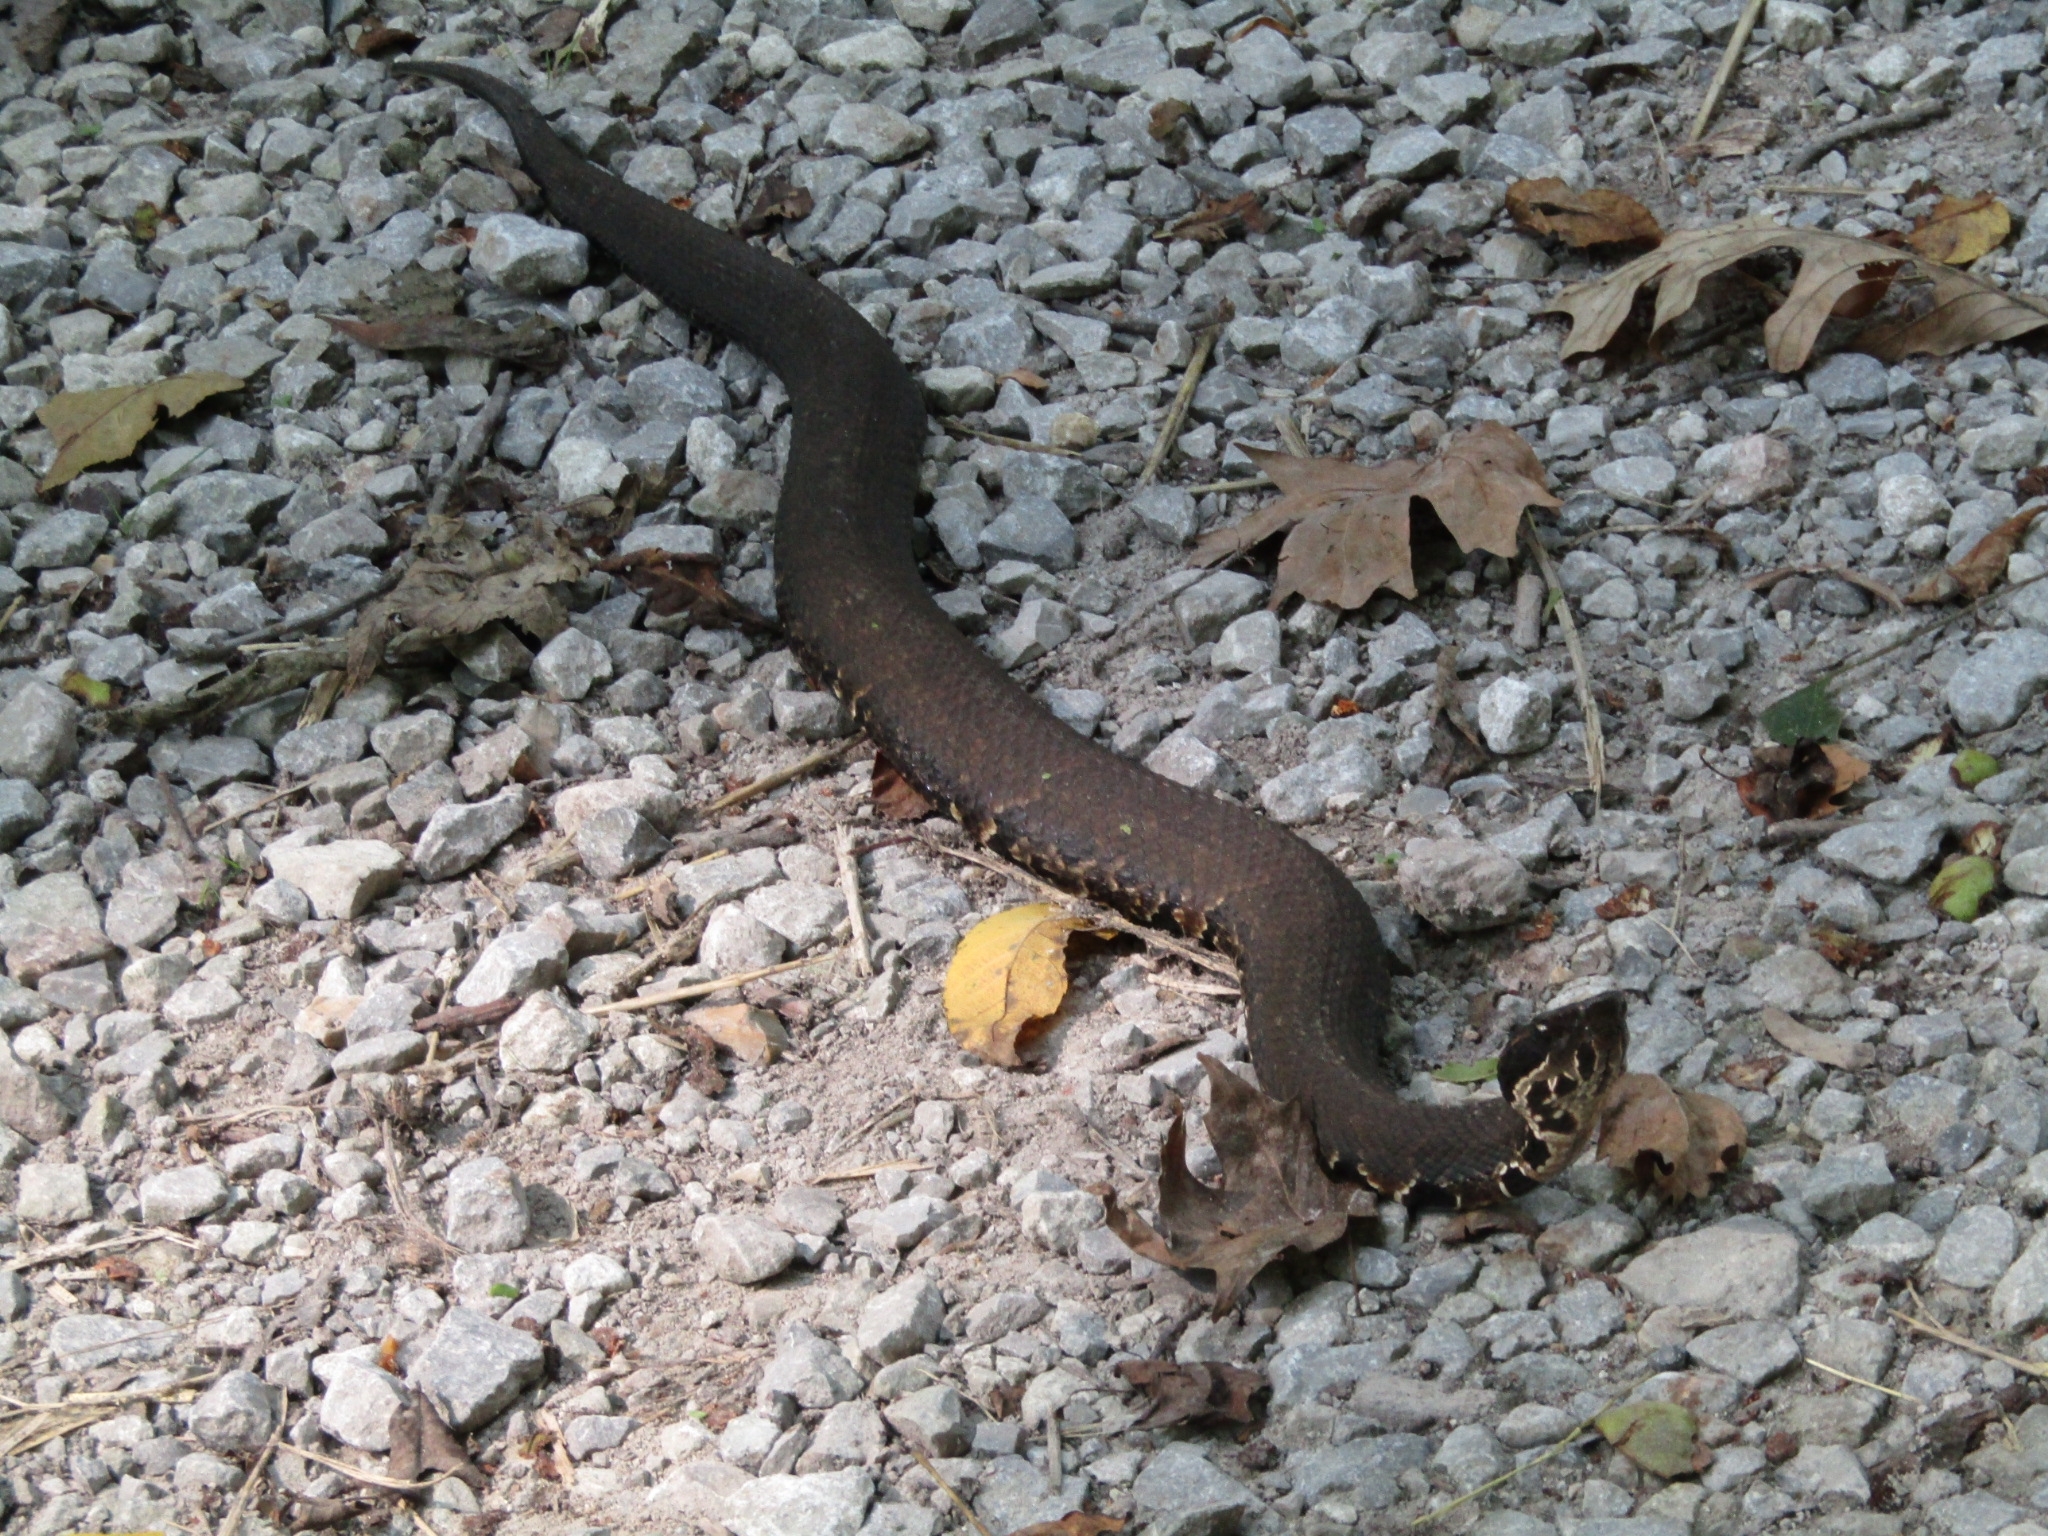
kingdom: Animalia
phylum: Chordata
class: Squamata
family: Viperidae
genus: Agkistrodon
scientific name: Agkistrodon piscivorus
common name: Cottonmouth
